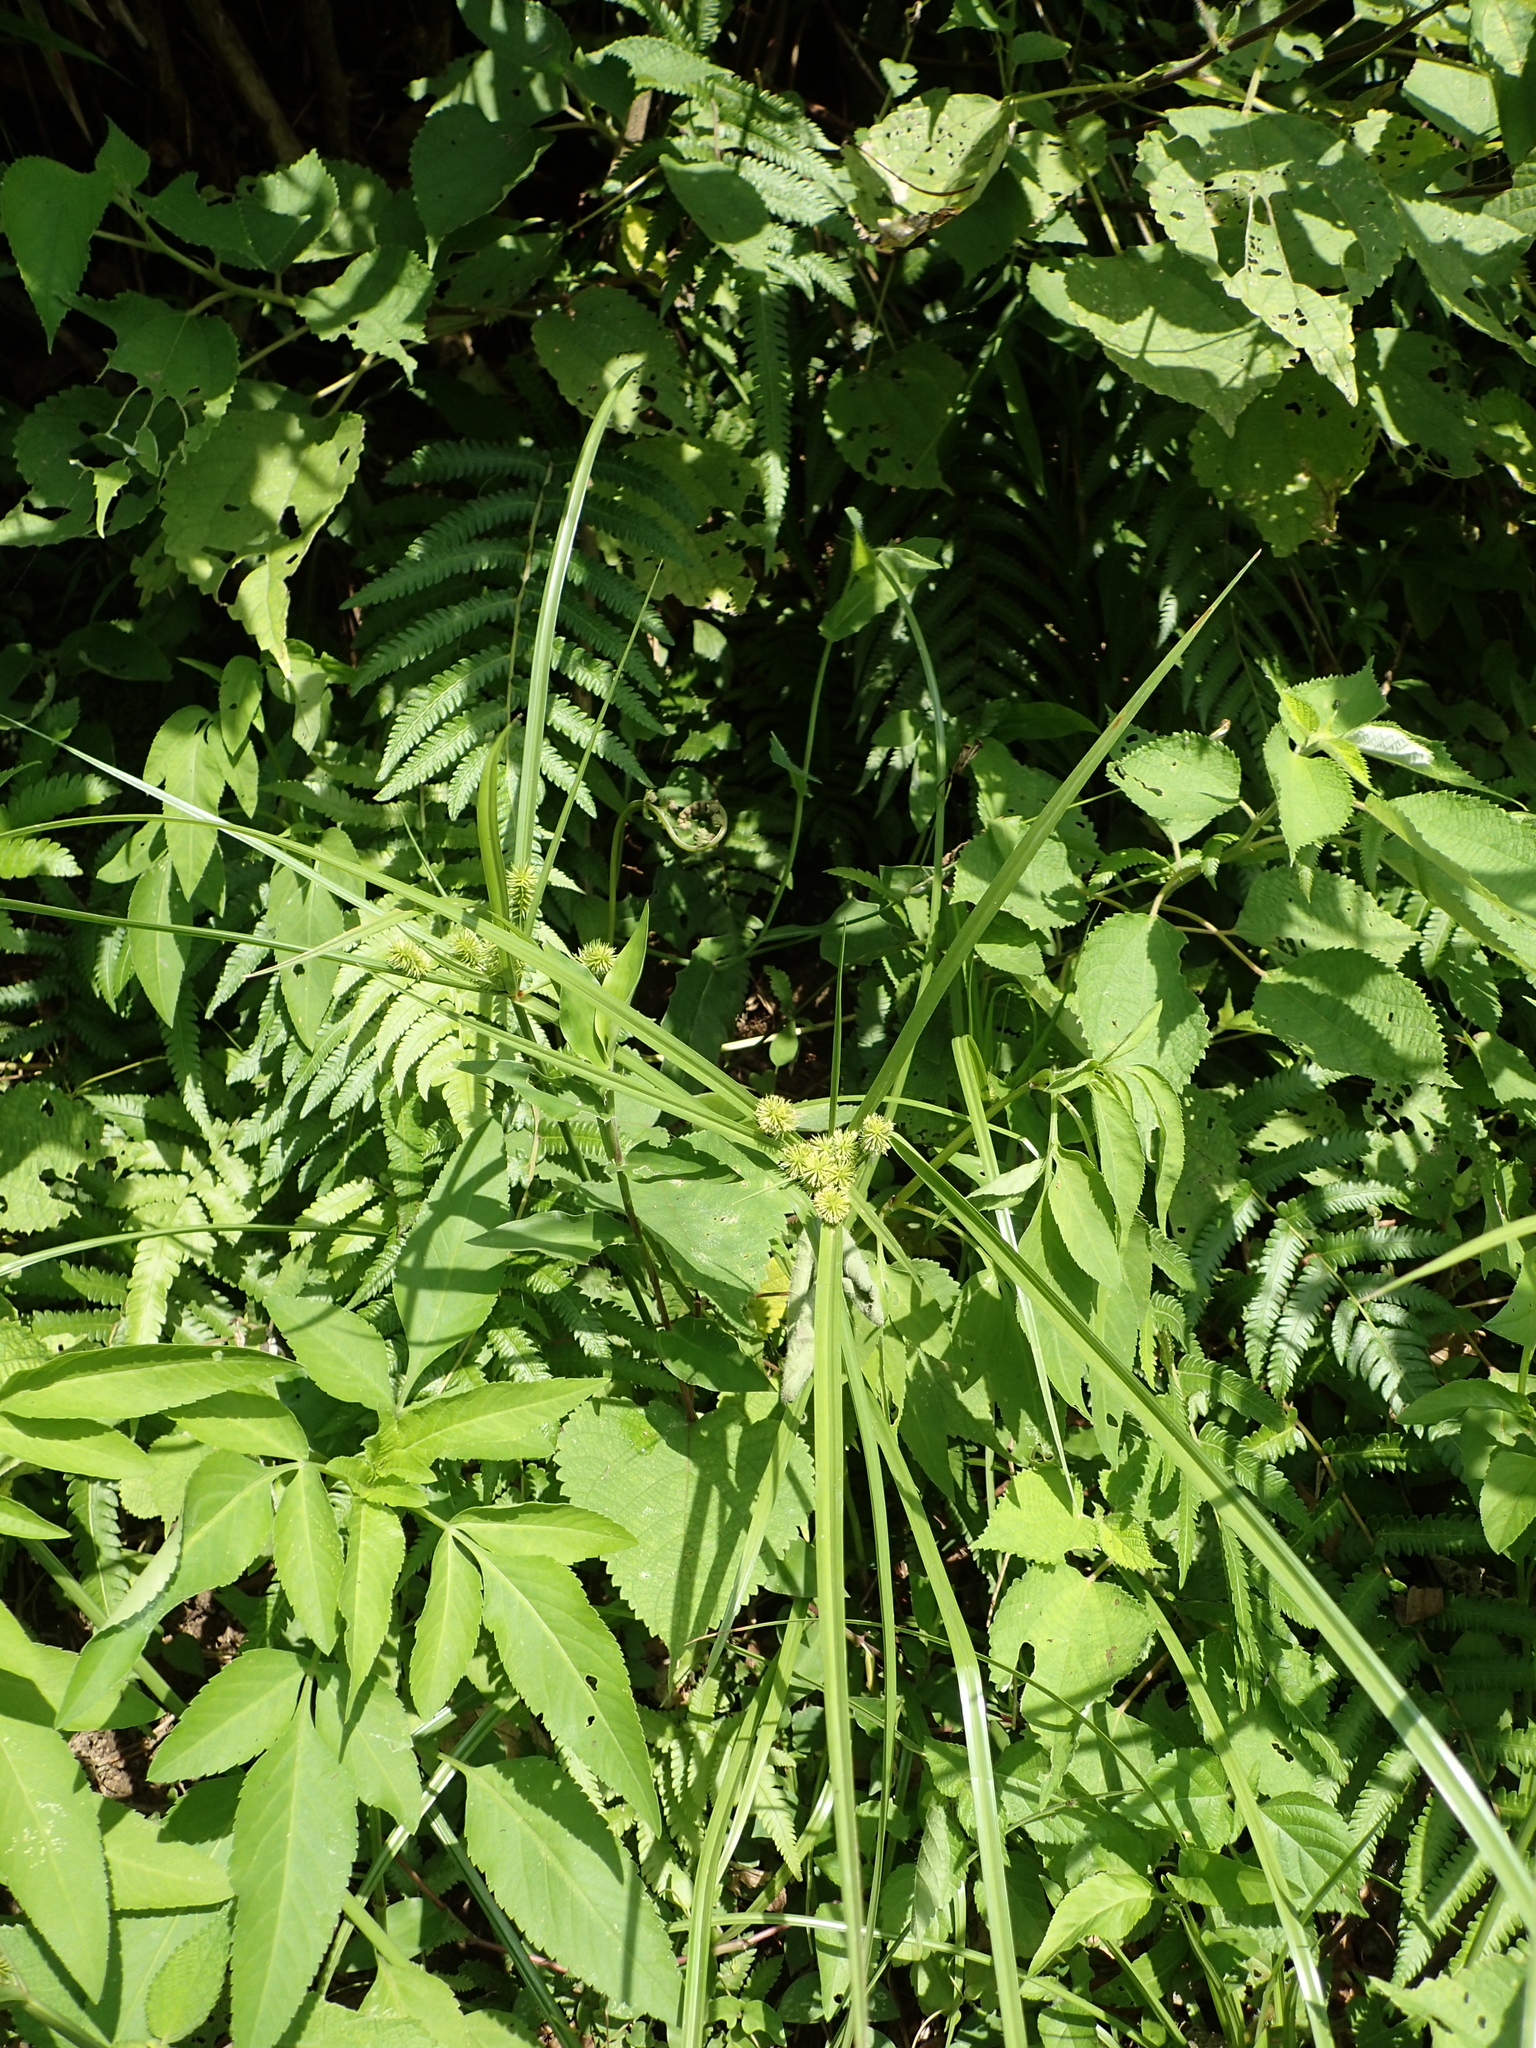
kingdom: Plantae
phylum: Tracheophyta
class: Liliopsida
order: Poales
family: Cyperaceae
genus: Cyperus
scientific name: Cyperus cyperoides
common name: Pacific island flat sedge
